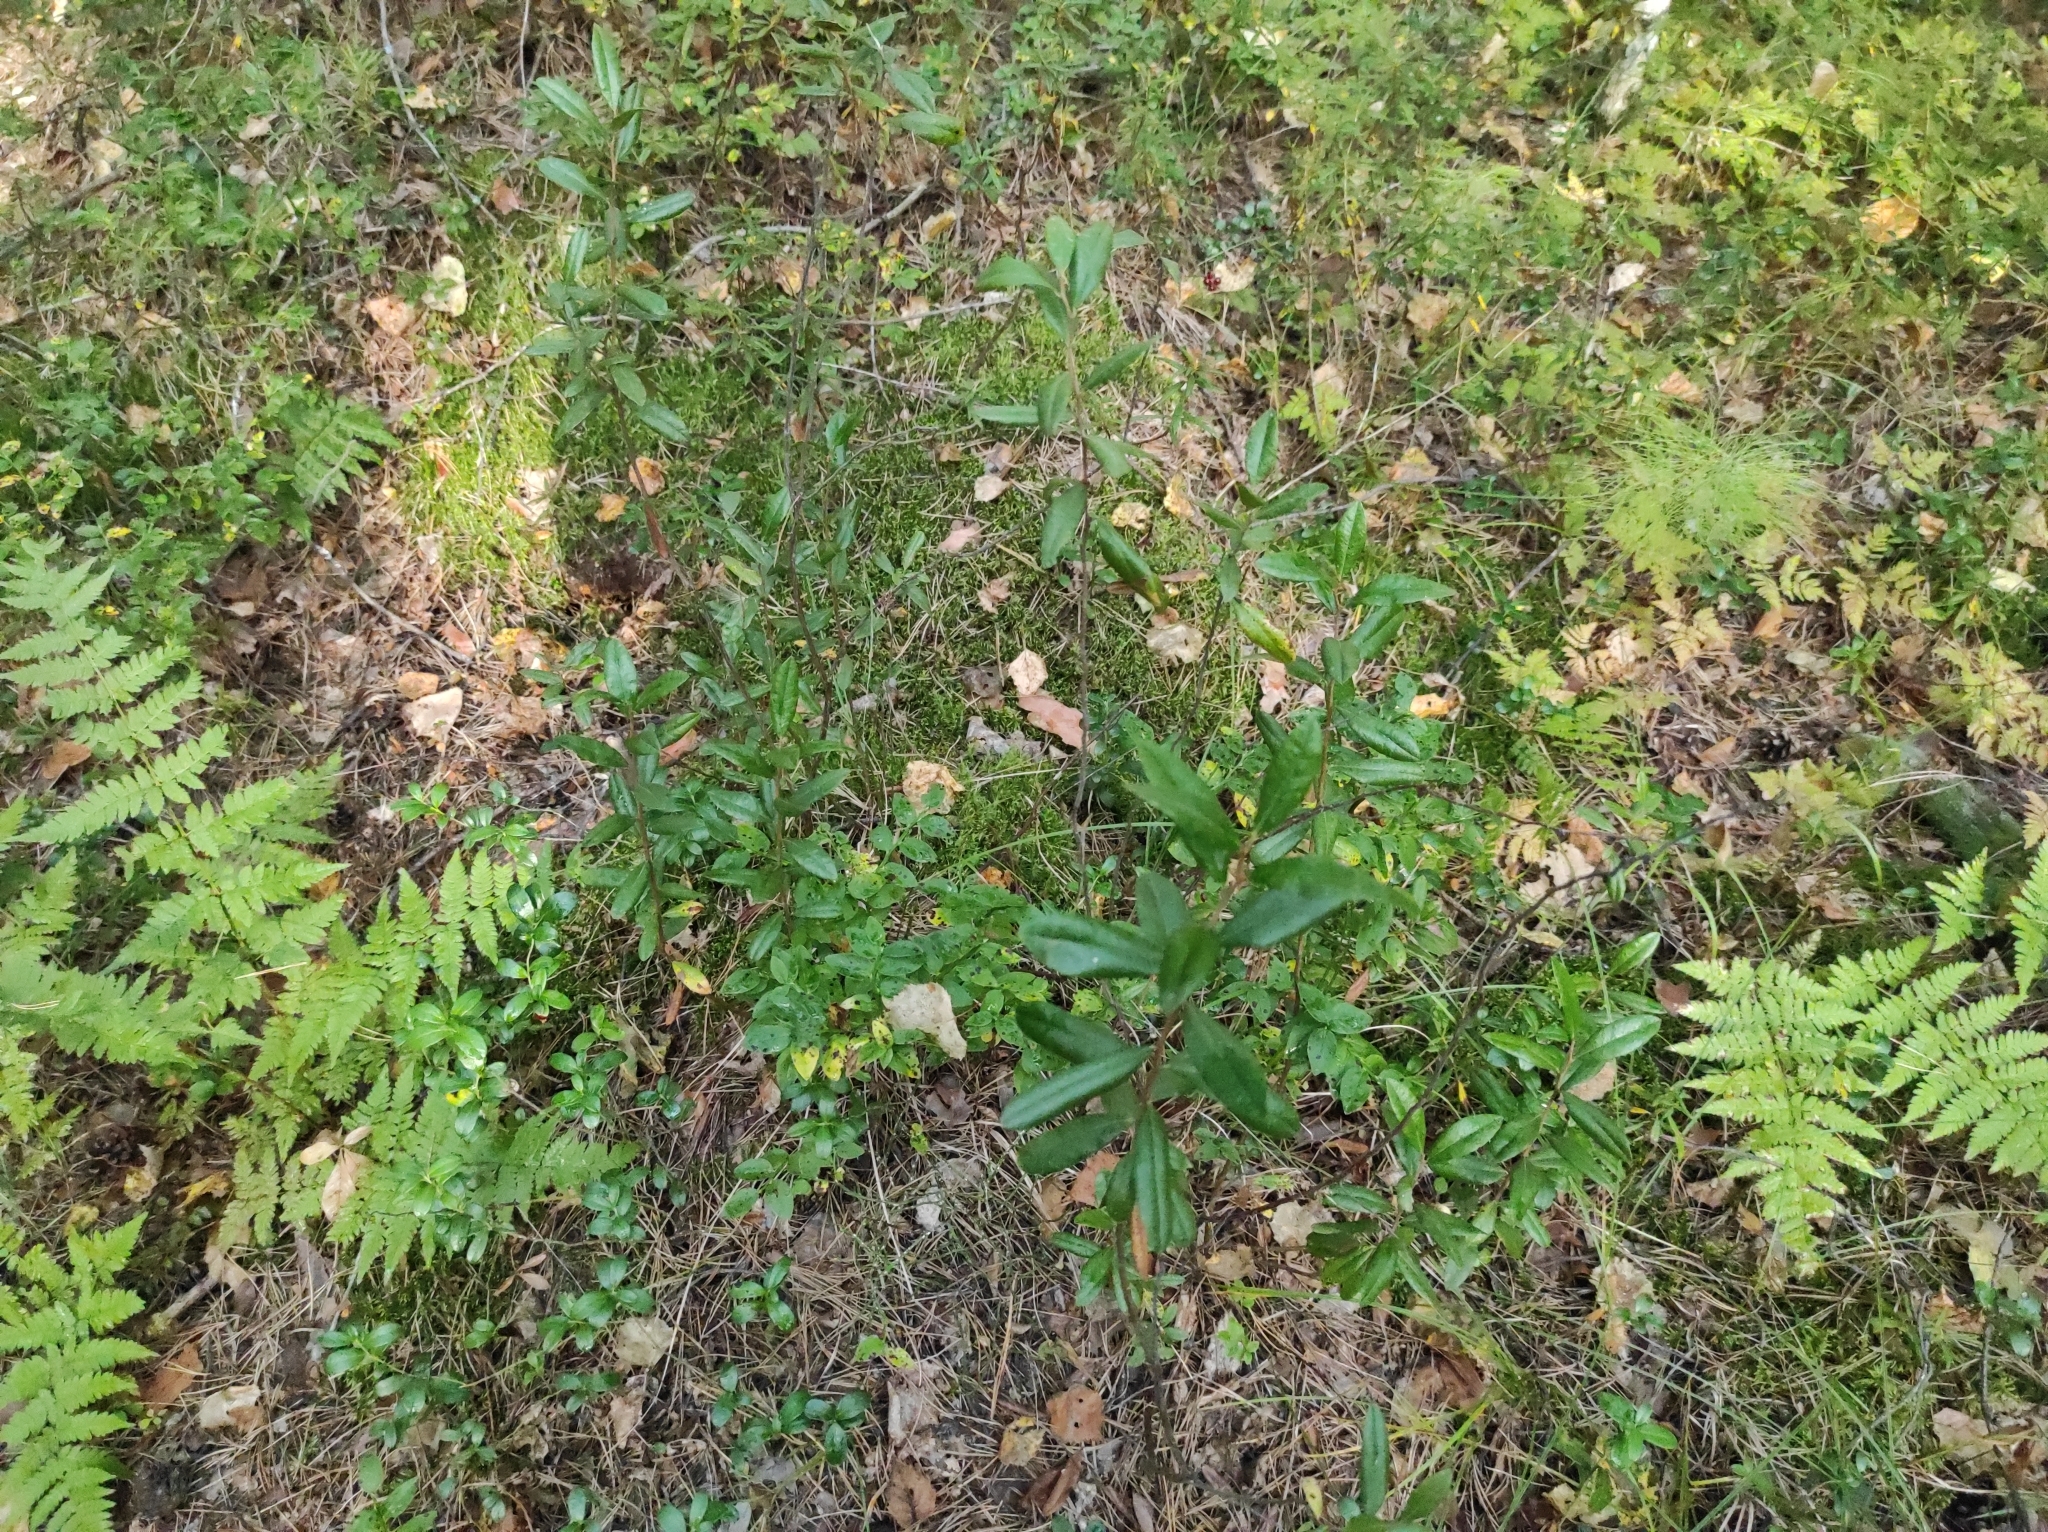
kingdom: Plantae
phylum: Tracheophyta
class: Magnoliopsida
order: Ericales
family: Ericaceae
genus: Chamaedaphne
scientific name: Chamaedaphne calyculata
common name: Leatherleaf
